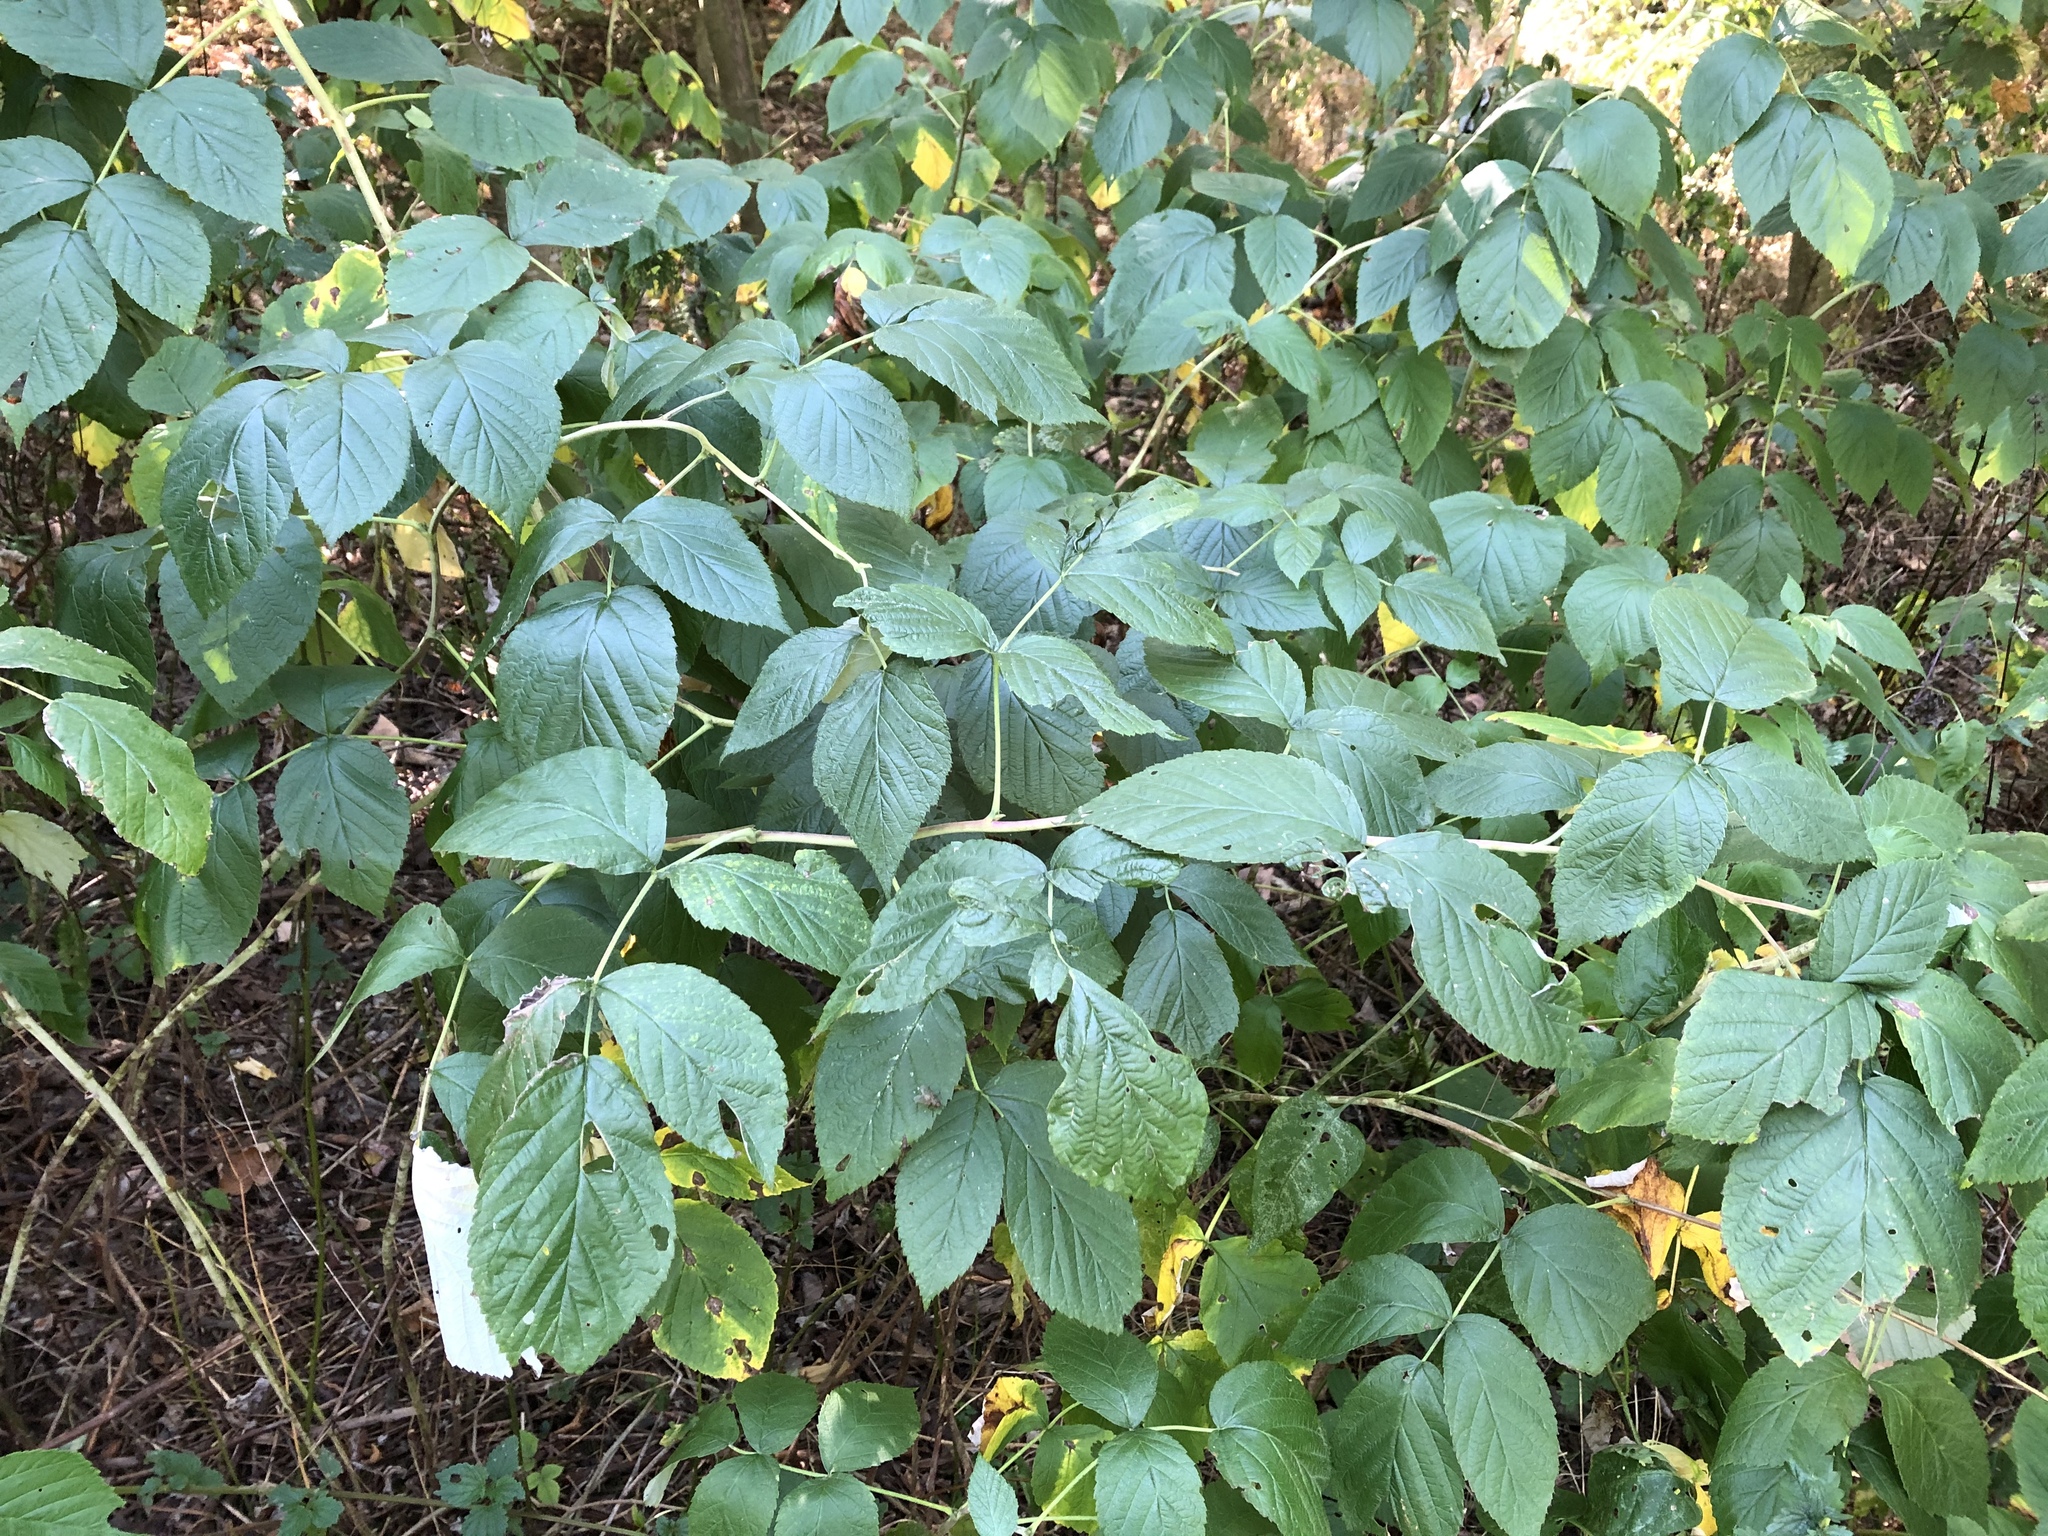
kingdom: Plantae
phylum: Tracheophyta
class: Magnoliopsida
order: Rosales
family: Rosaceae
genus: Rubus
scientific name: Rubus idaeus
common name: Raspberry
